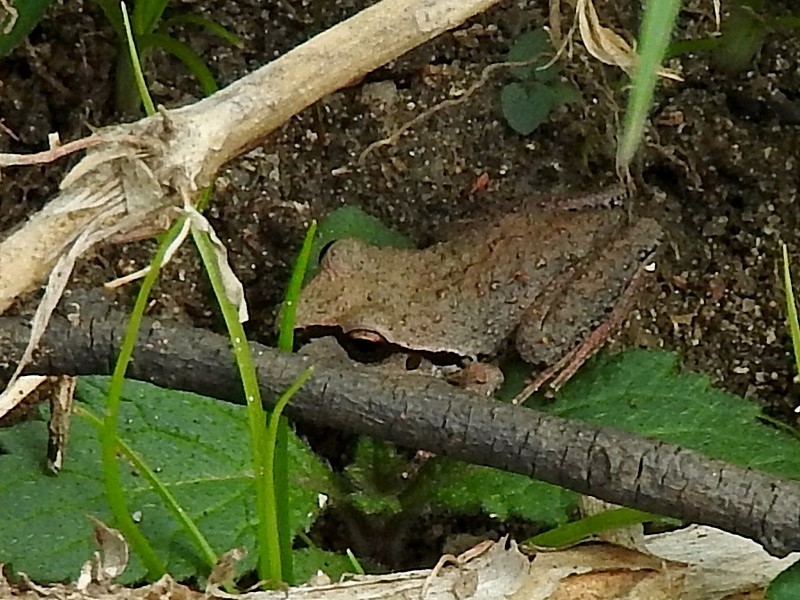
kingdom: Animalia
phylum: Chordata
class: Amphibia
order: Anura
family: Pelodryadidae
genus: Ranoidea
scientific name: Ranoidea lesueurii
